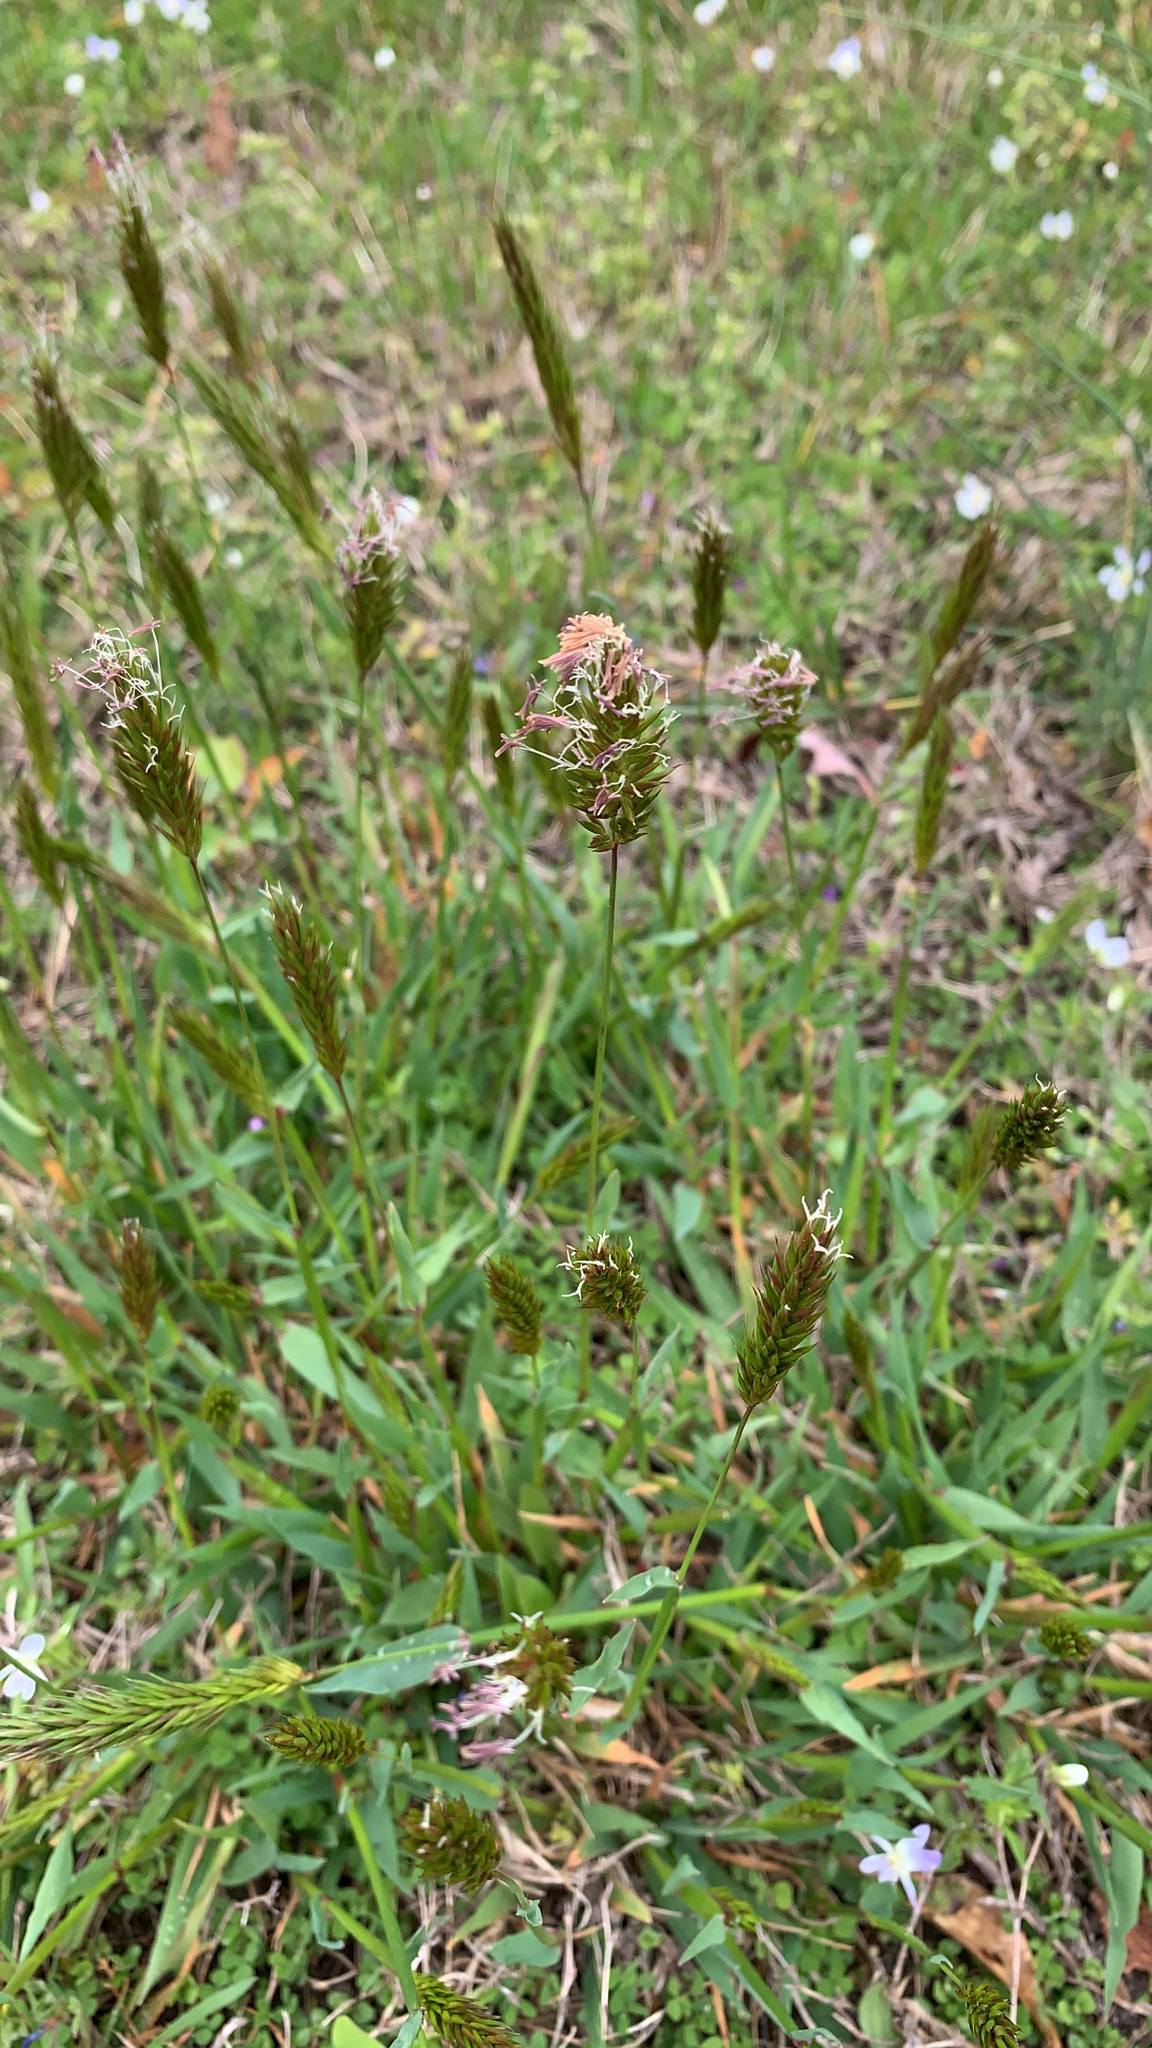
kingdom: Plantae
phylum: Tracheophyta
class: Liliopsida
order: Poales
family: Poaceae
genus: Anthoxanthum
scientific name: Anthoxanthum odoratum
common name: Sweet vernalgrass
